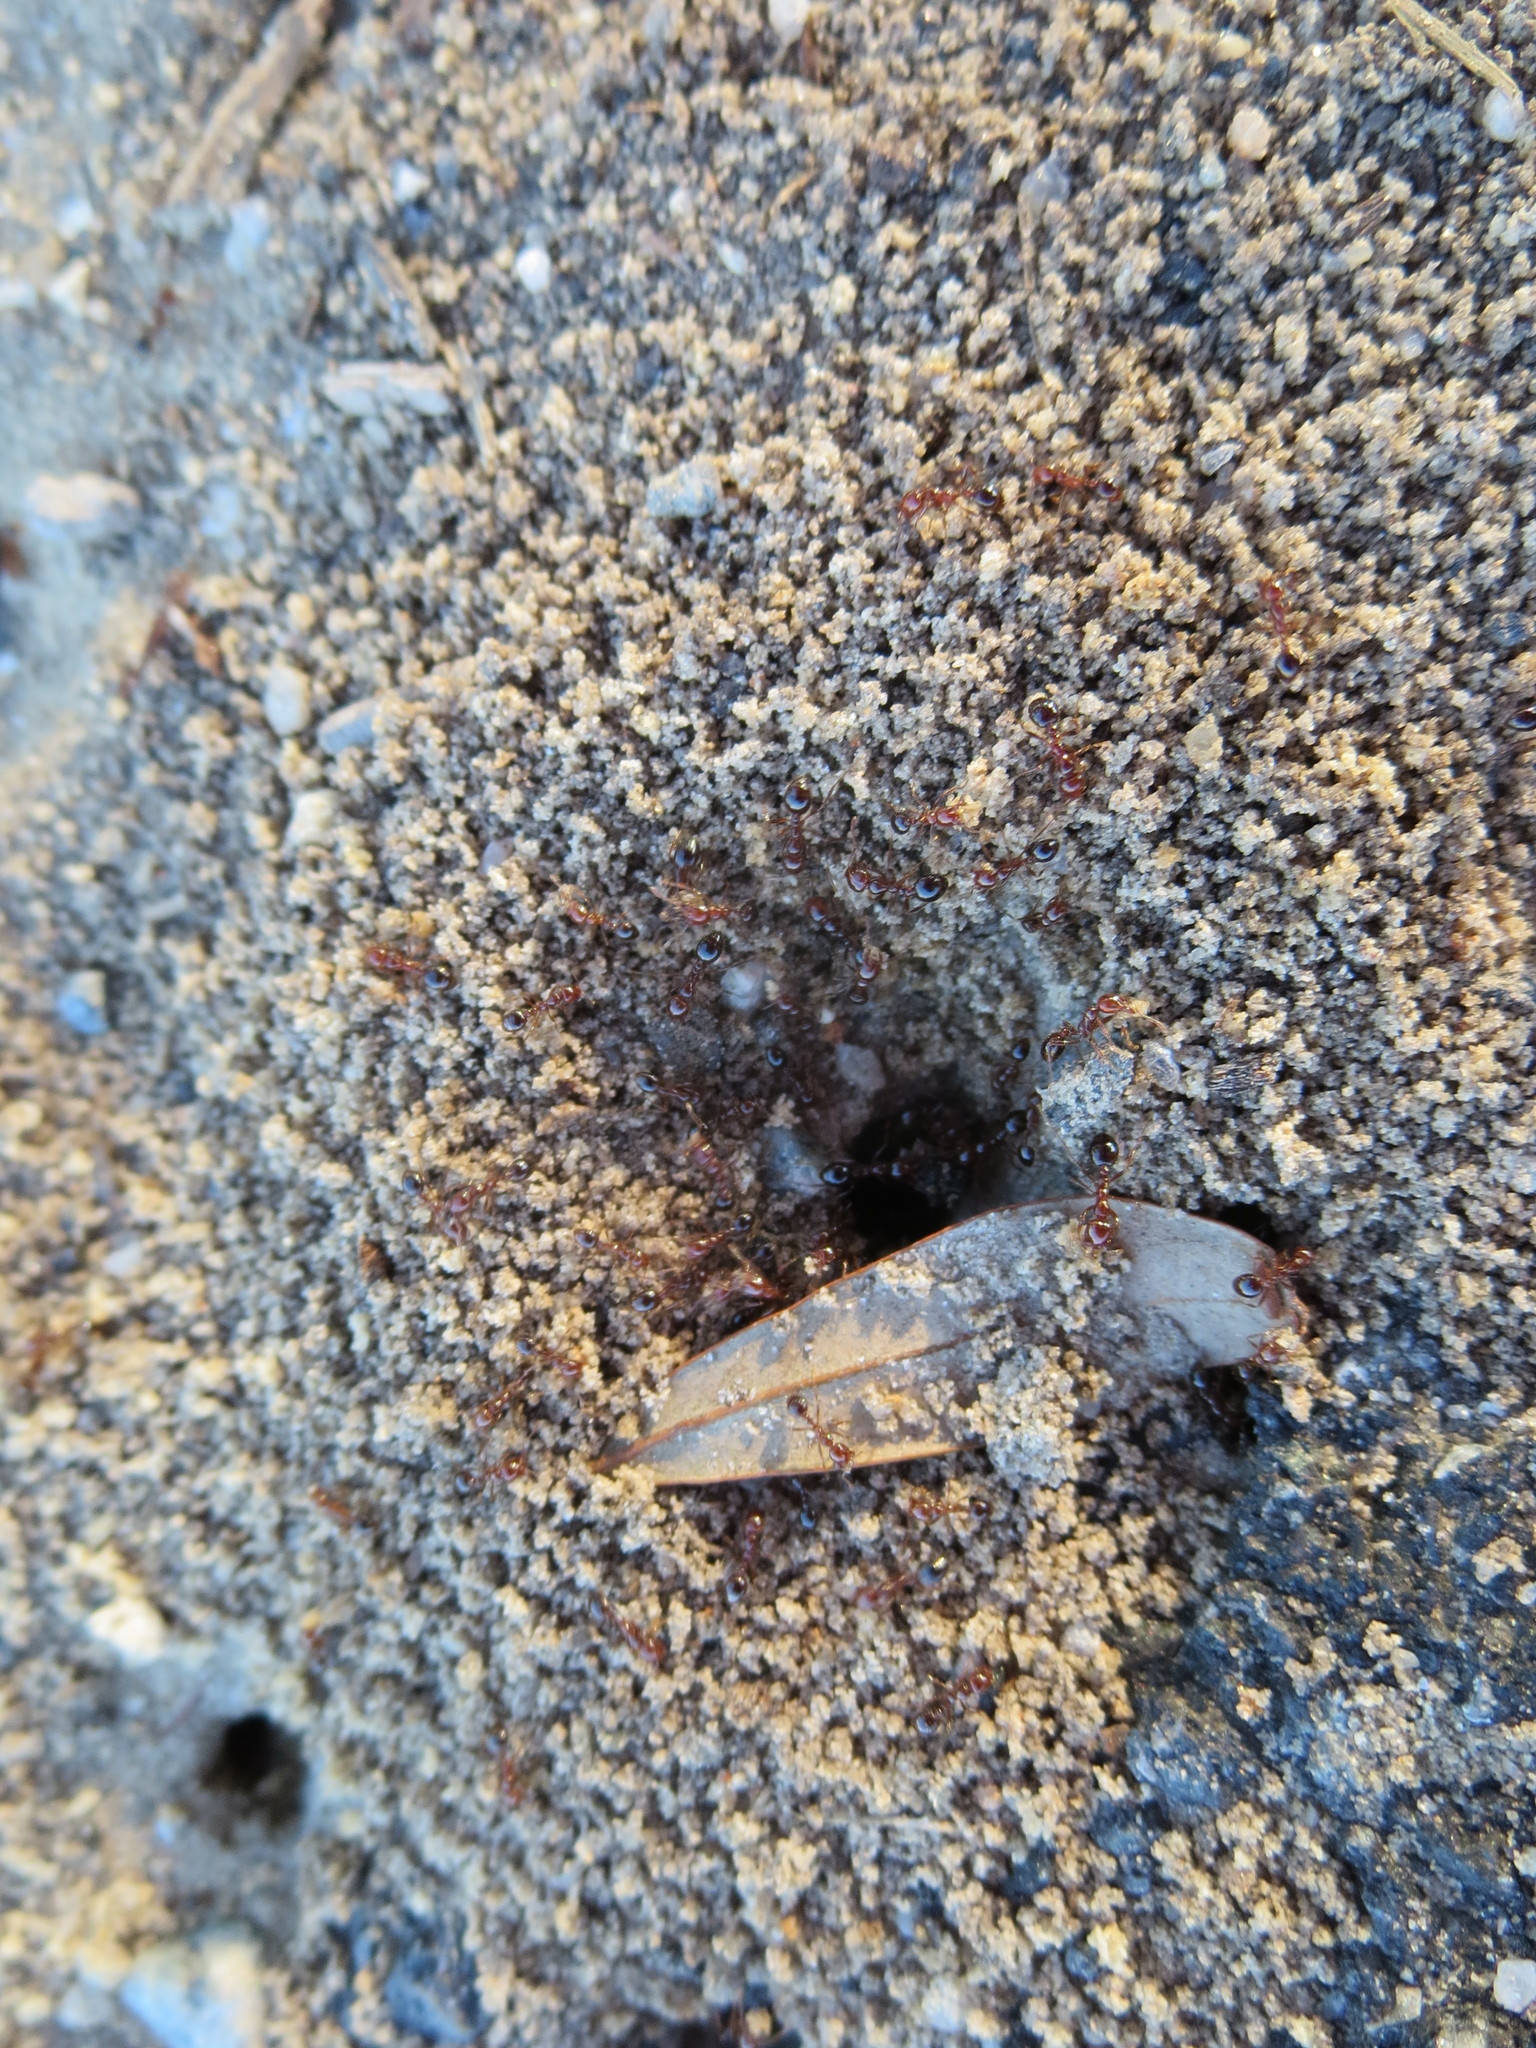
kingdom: Animalia
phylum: Arthropoda
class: Insecta
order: Hymenoptera
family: Formicidae
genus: Solenopsis
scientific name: Solenopsis invicta
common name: Red imported fire ant
